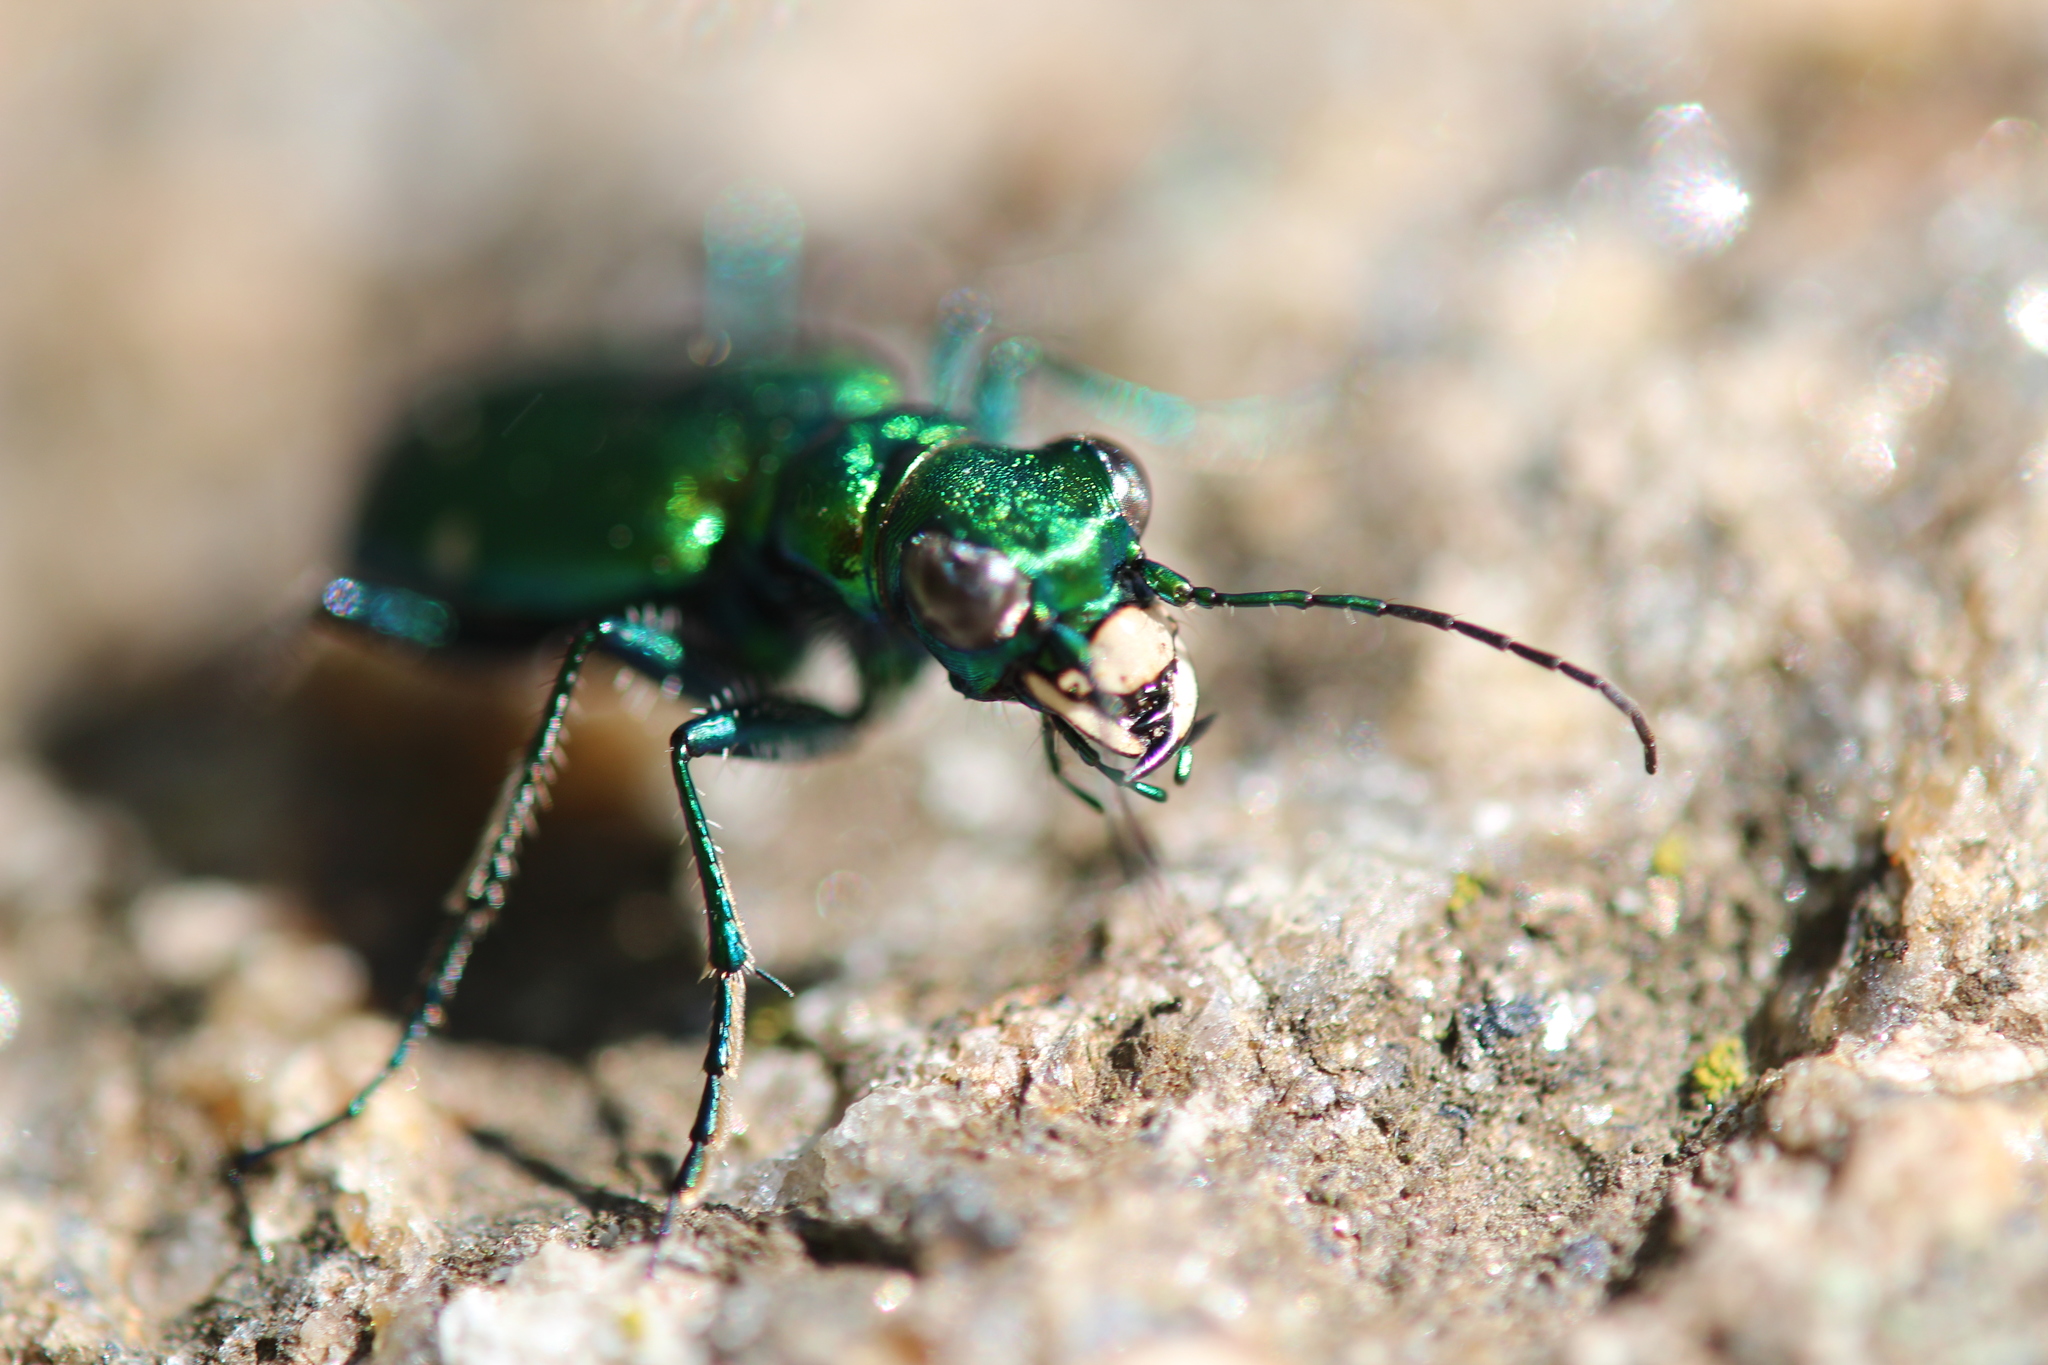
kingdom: Animalia
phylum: Arthropoda
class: Insecta
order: Coleoptera
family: Carabidae
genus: Cicindela
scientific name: Cicindela sexguttata
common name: Six-spotted tiger beetle
